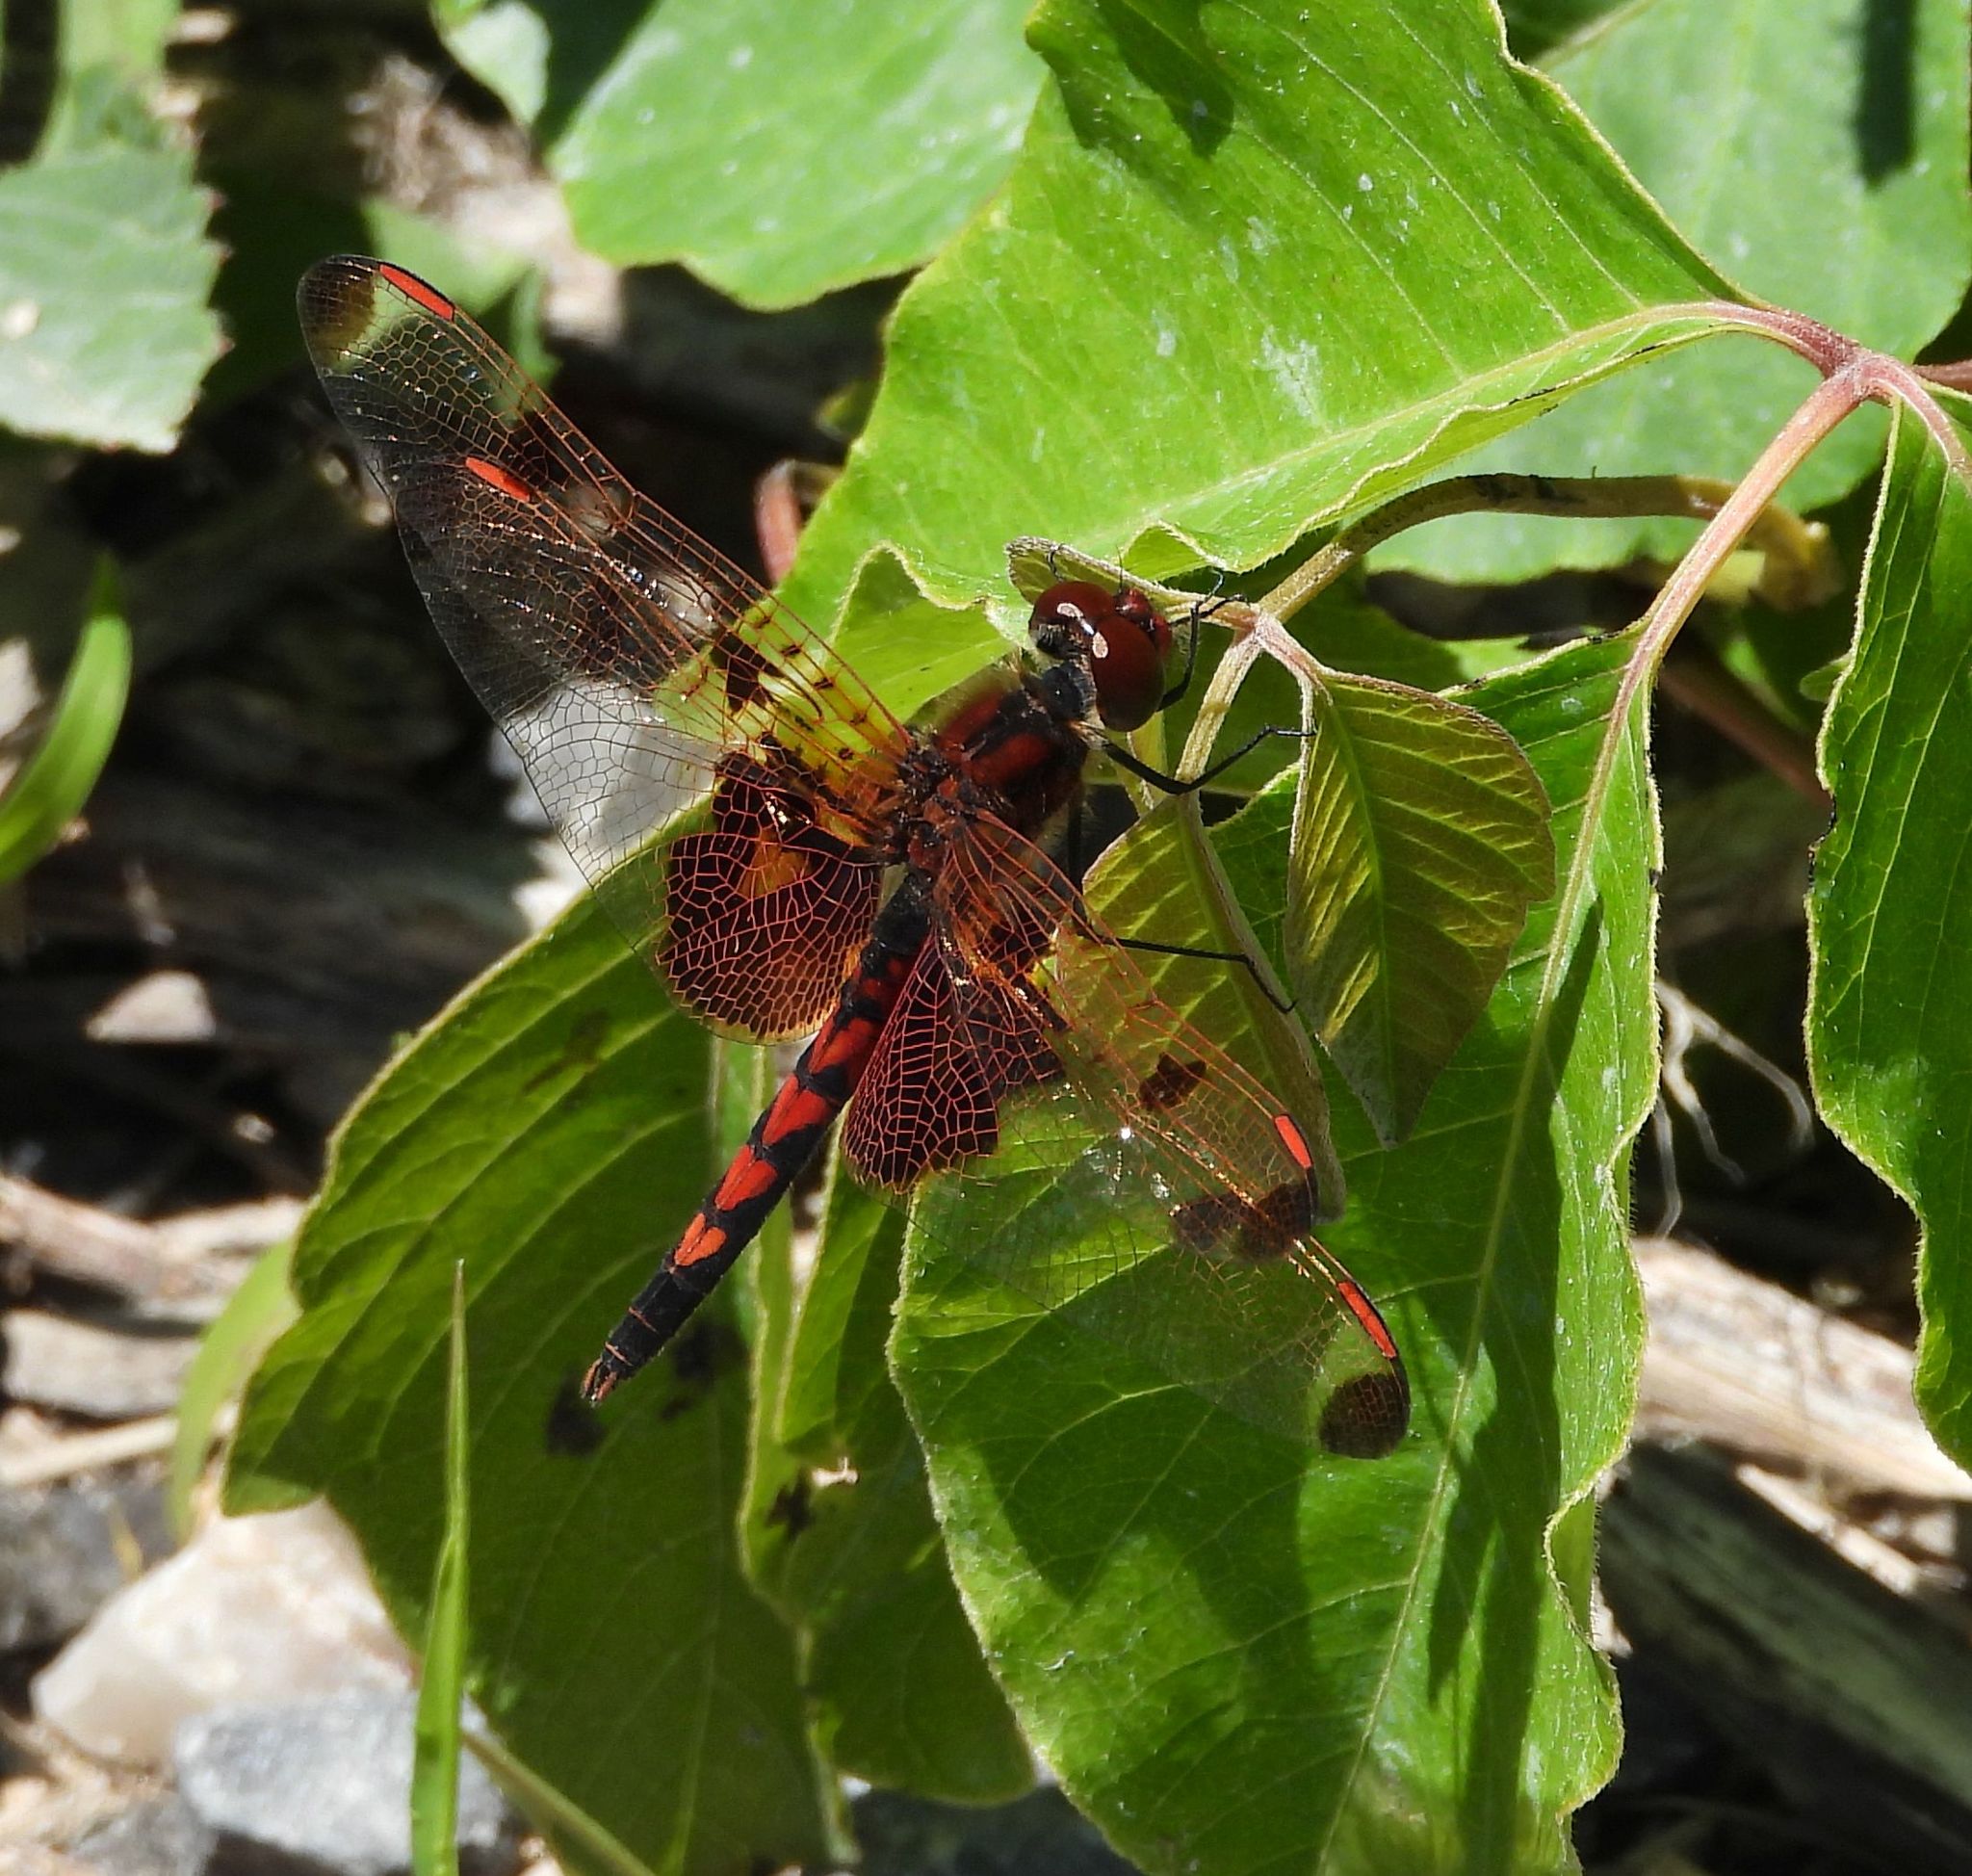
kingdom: Animalia
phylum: Arthropoda
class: Insecta
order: Odonata
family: Libellulidae
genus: Celithemis
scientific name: Celithemis elisa
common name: Calico pennant
